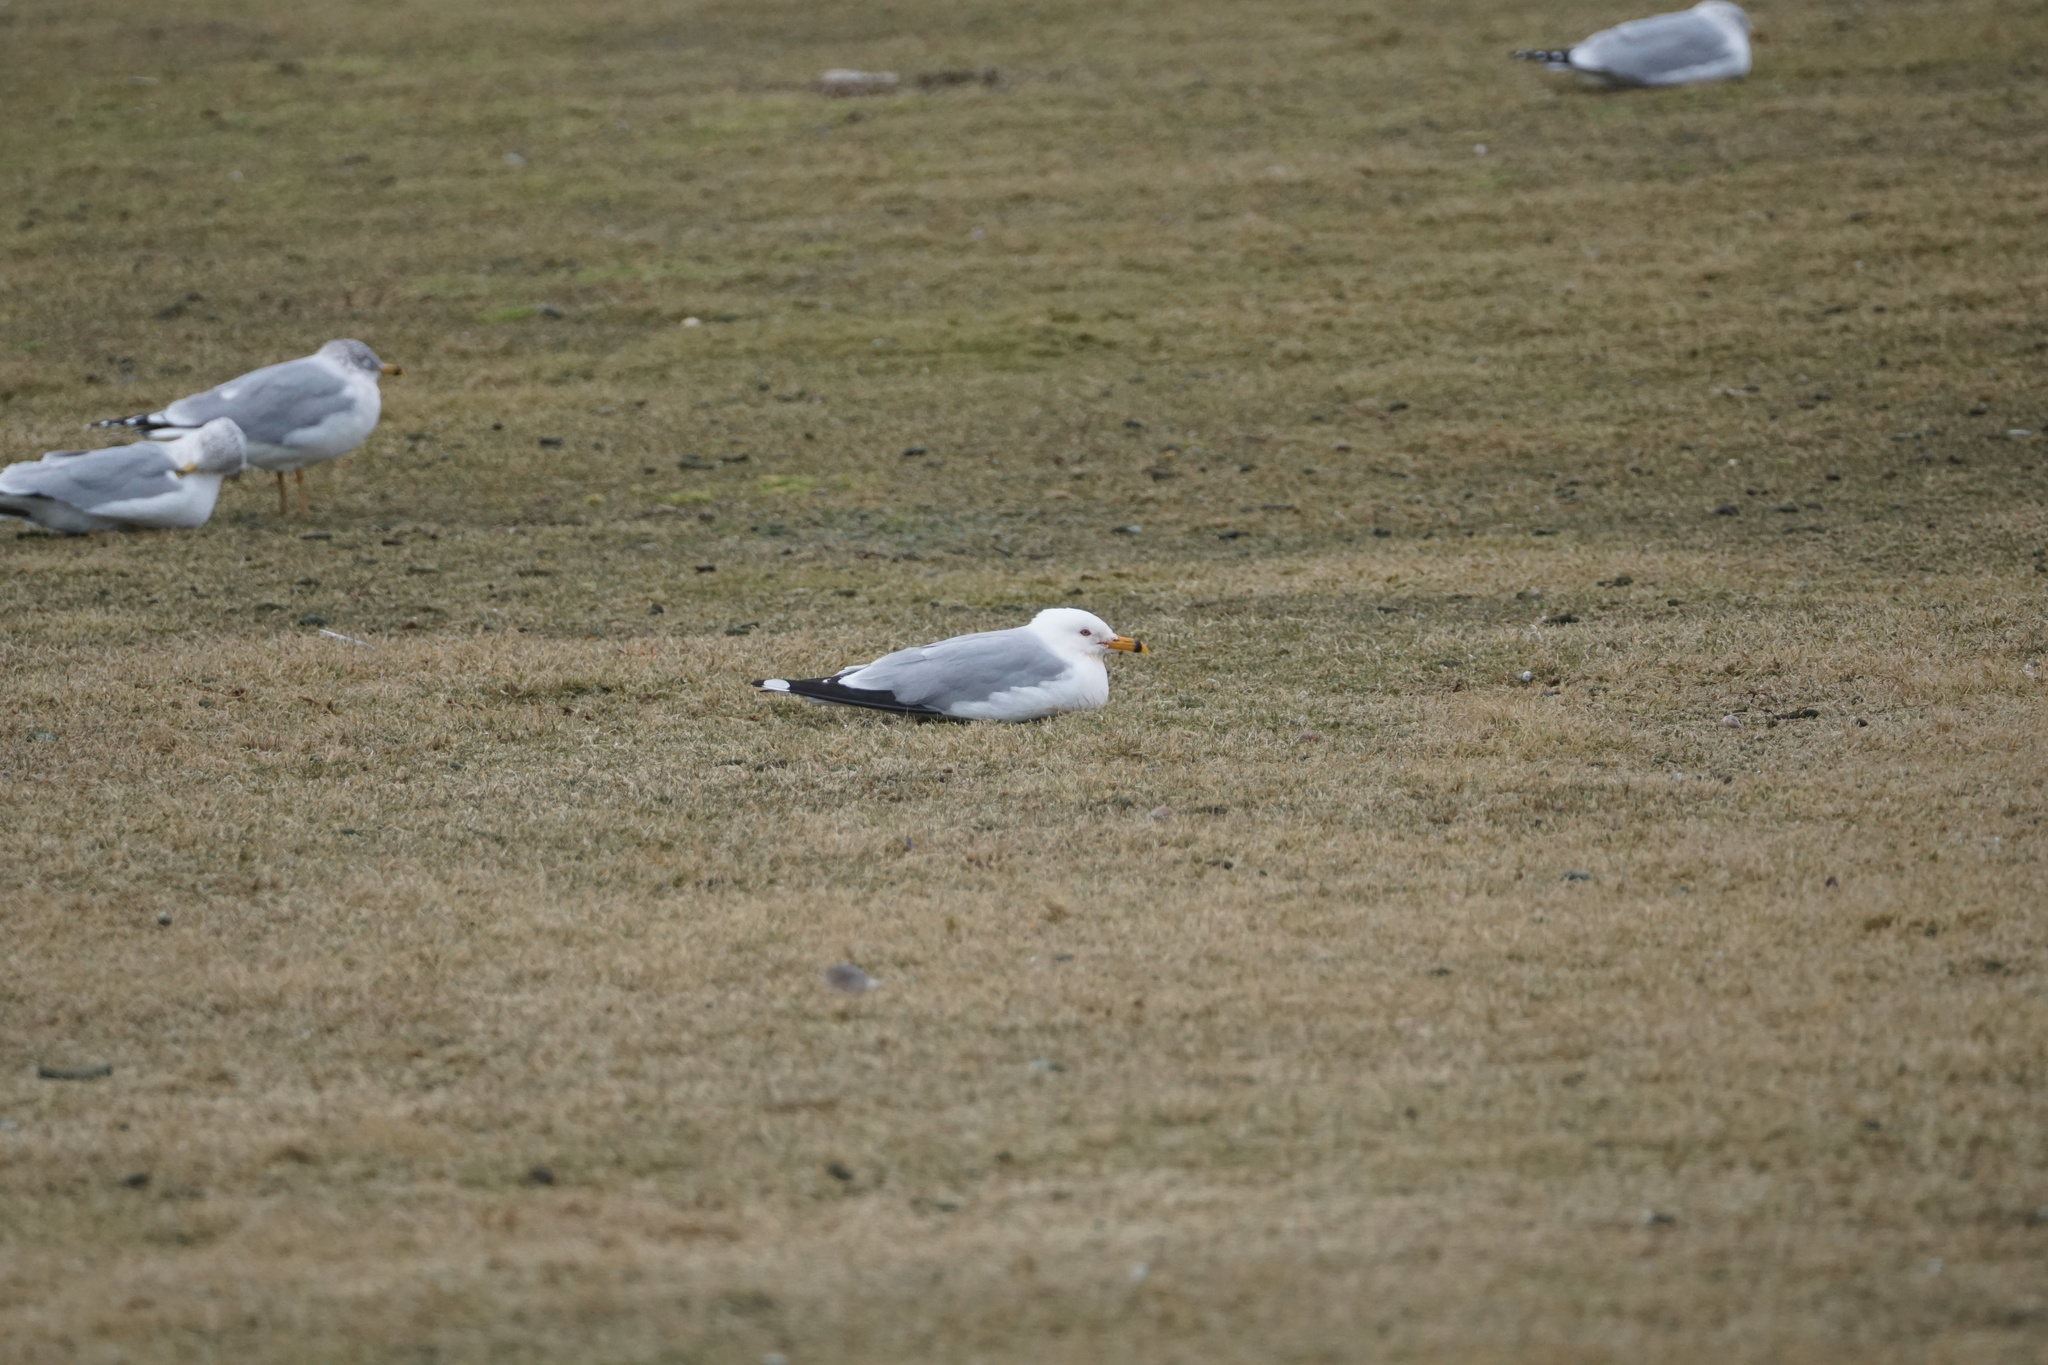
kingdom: Animalia
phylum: Chordata
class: Aves
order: Charadriiformes
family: Laridae
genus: Larus
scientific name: Larus delawarensis
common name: Ring-billed gull
